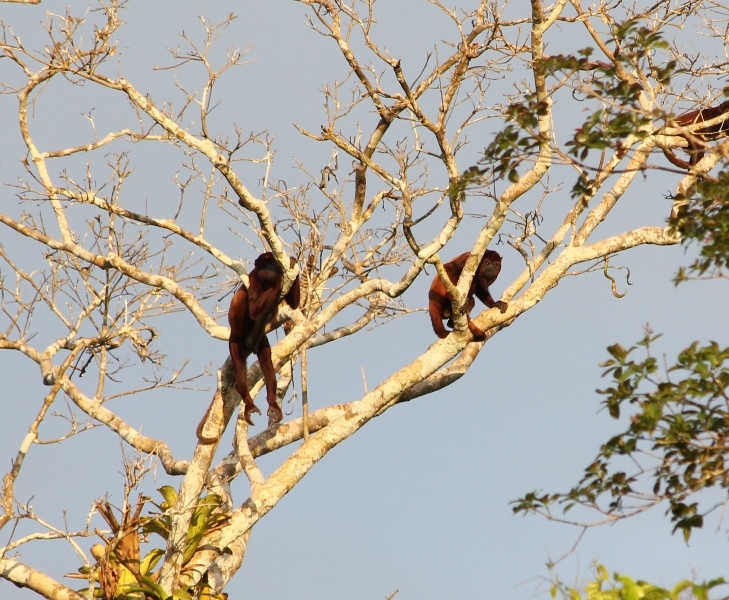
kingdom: Animalia
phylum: Chordata
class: Mammalia
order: Primates
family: Atelidae
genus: Alouatta
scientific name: Alouatta seniculus
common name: Venezuelan red howler
